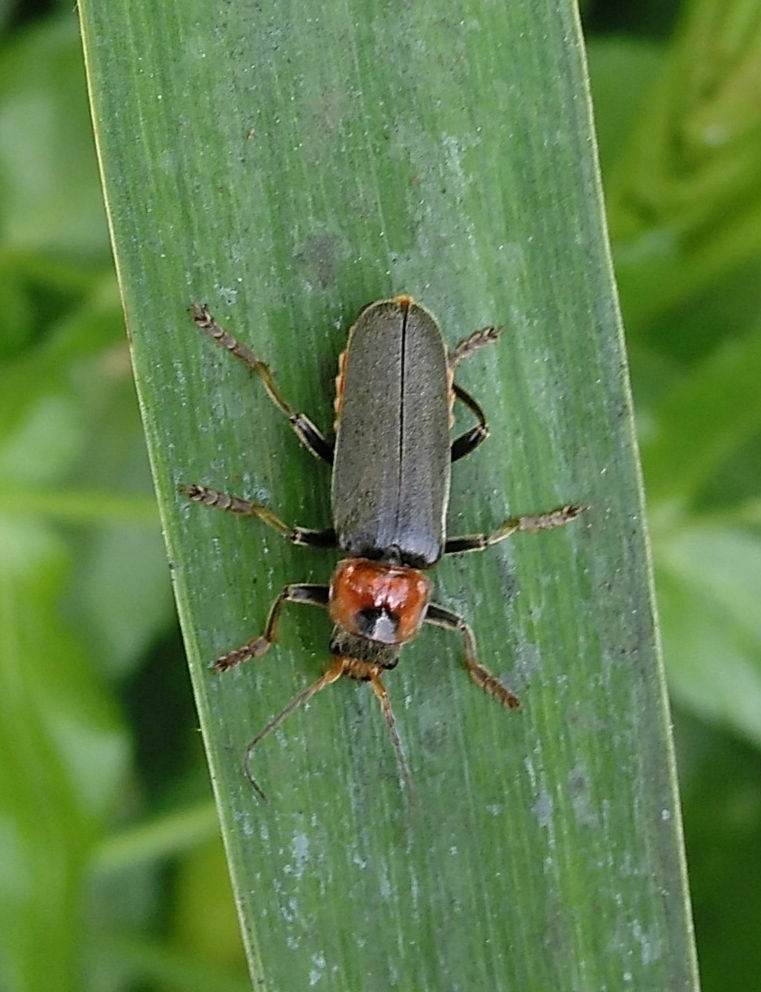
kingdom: Animalia
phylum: Arthropoda
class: Insecta
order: Coleoptera
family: Cantharidae
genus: Cantharis
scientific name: Cantharis fusca
